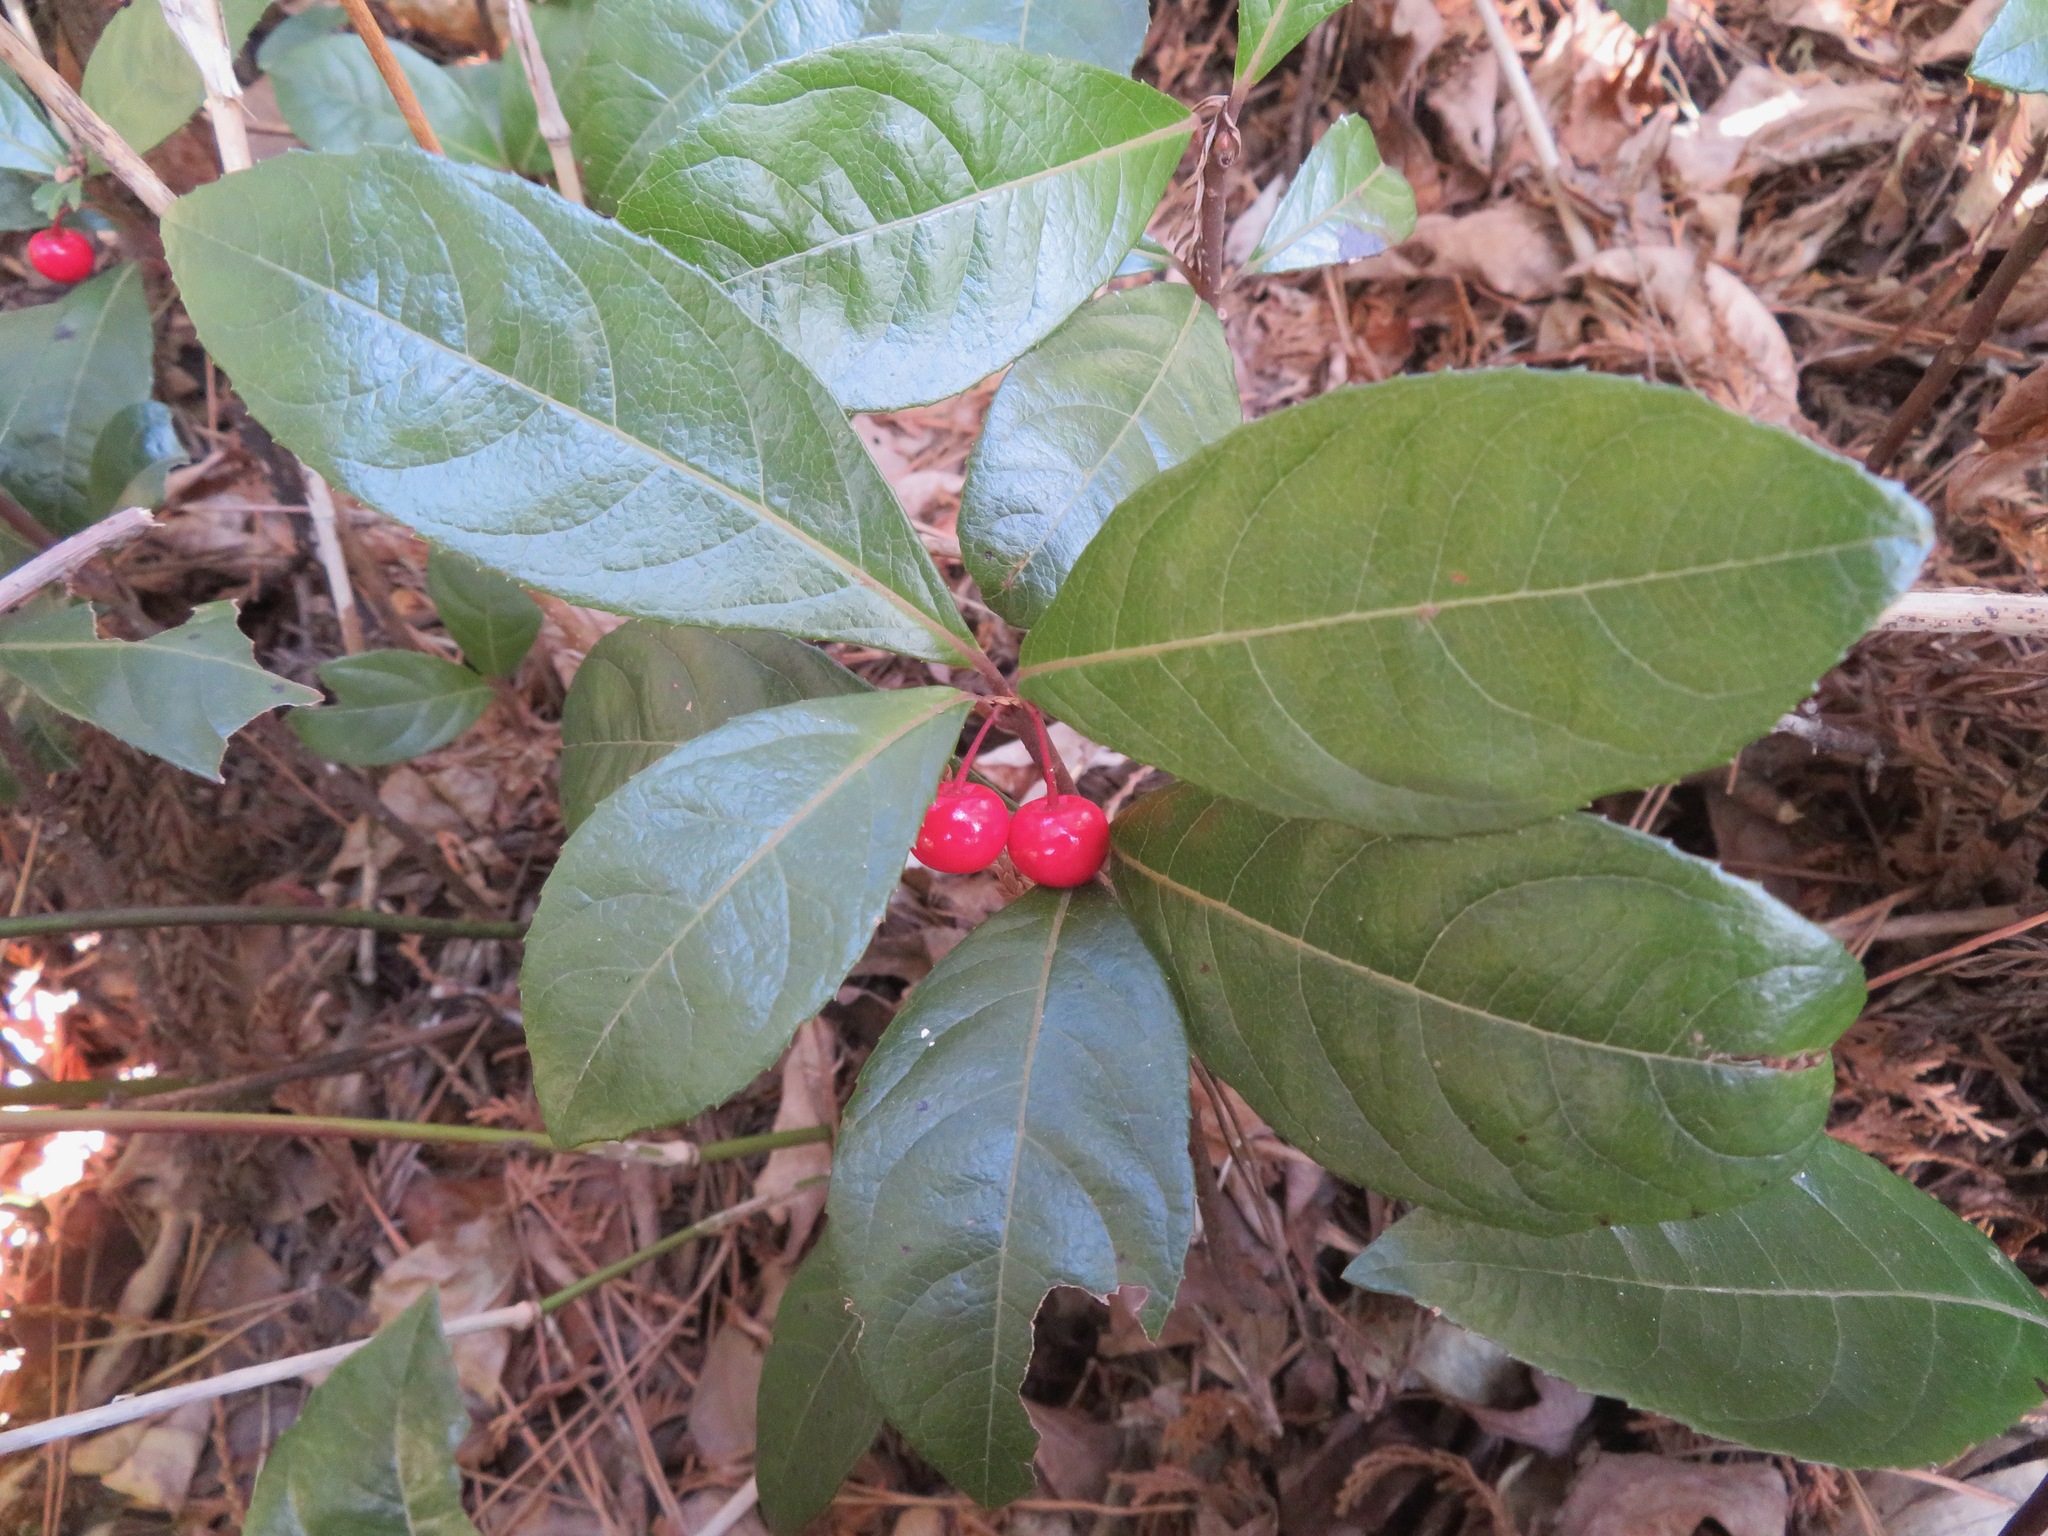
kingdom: Plantae
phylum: Tracheophyta
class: Magnoliopsida
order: Ericales
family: Primulaceae
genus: Ardisia
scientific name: Ardisia japonica
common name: Marlberry
